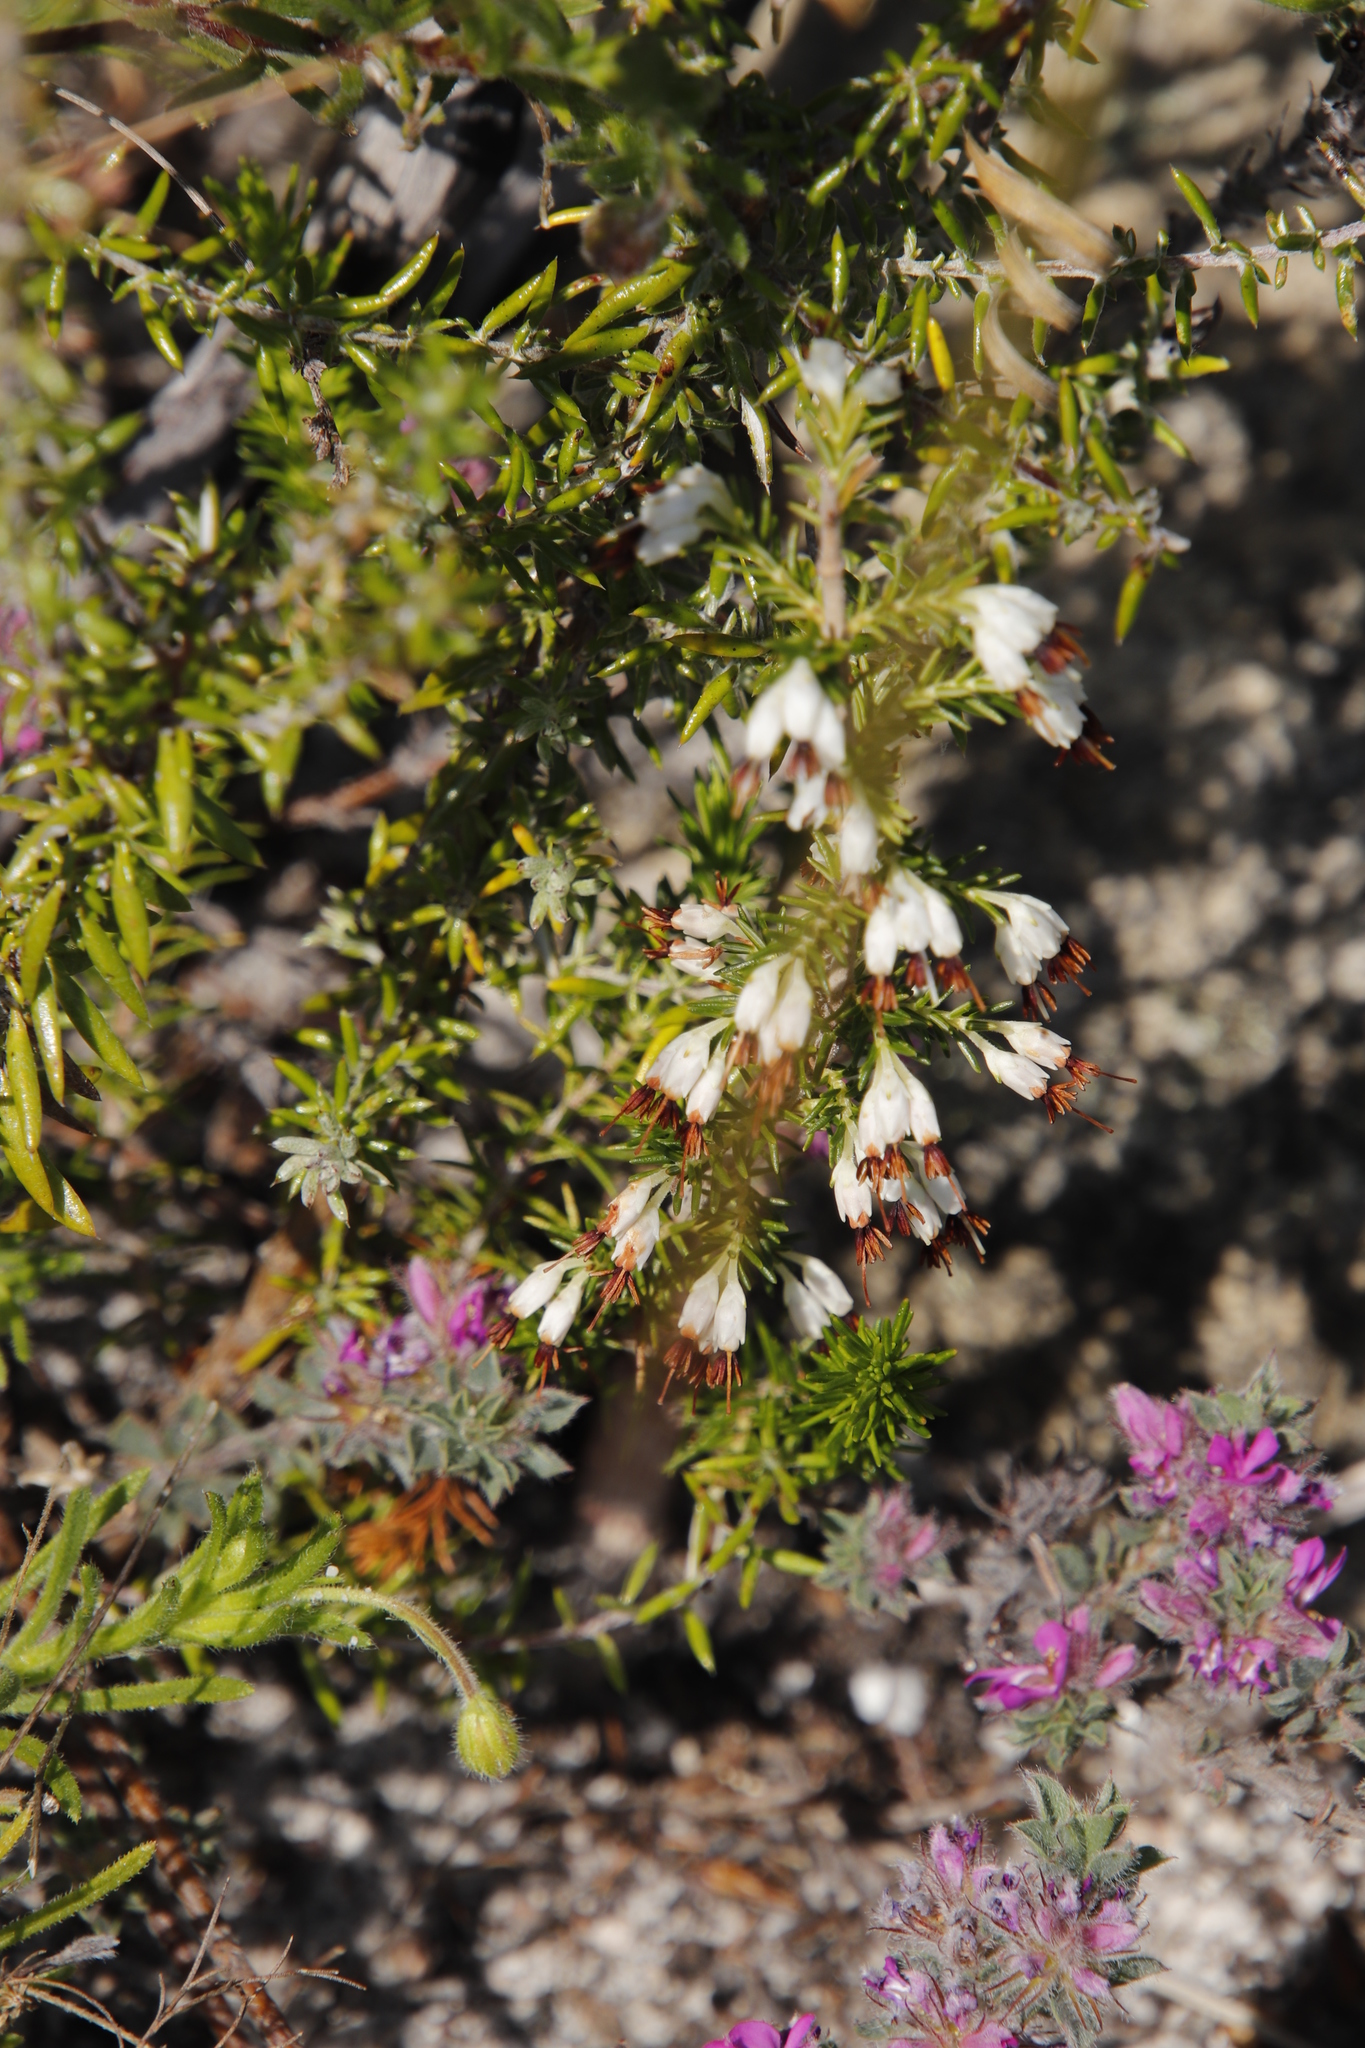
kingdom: Plantae
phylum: Tracheophyta
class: Magnoliopsida
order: Ericales
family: Ericaceae
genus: Erica
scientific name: Erica imbricata
